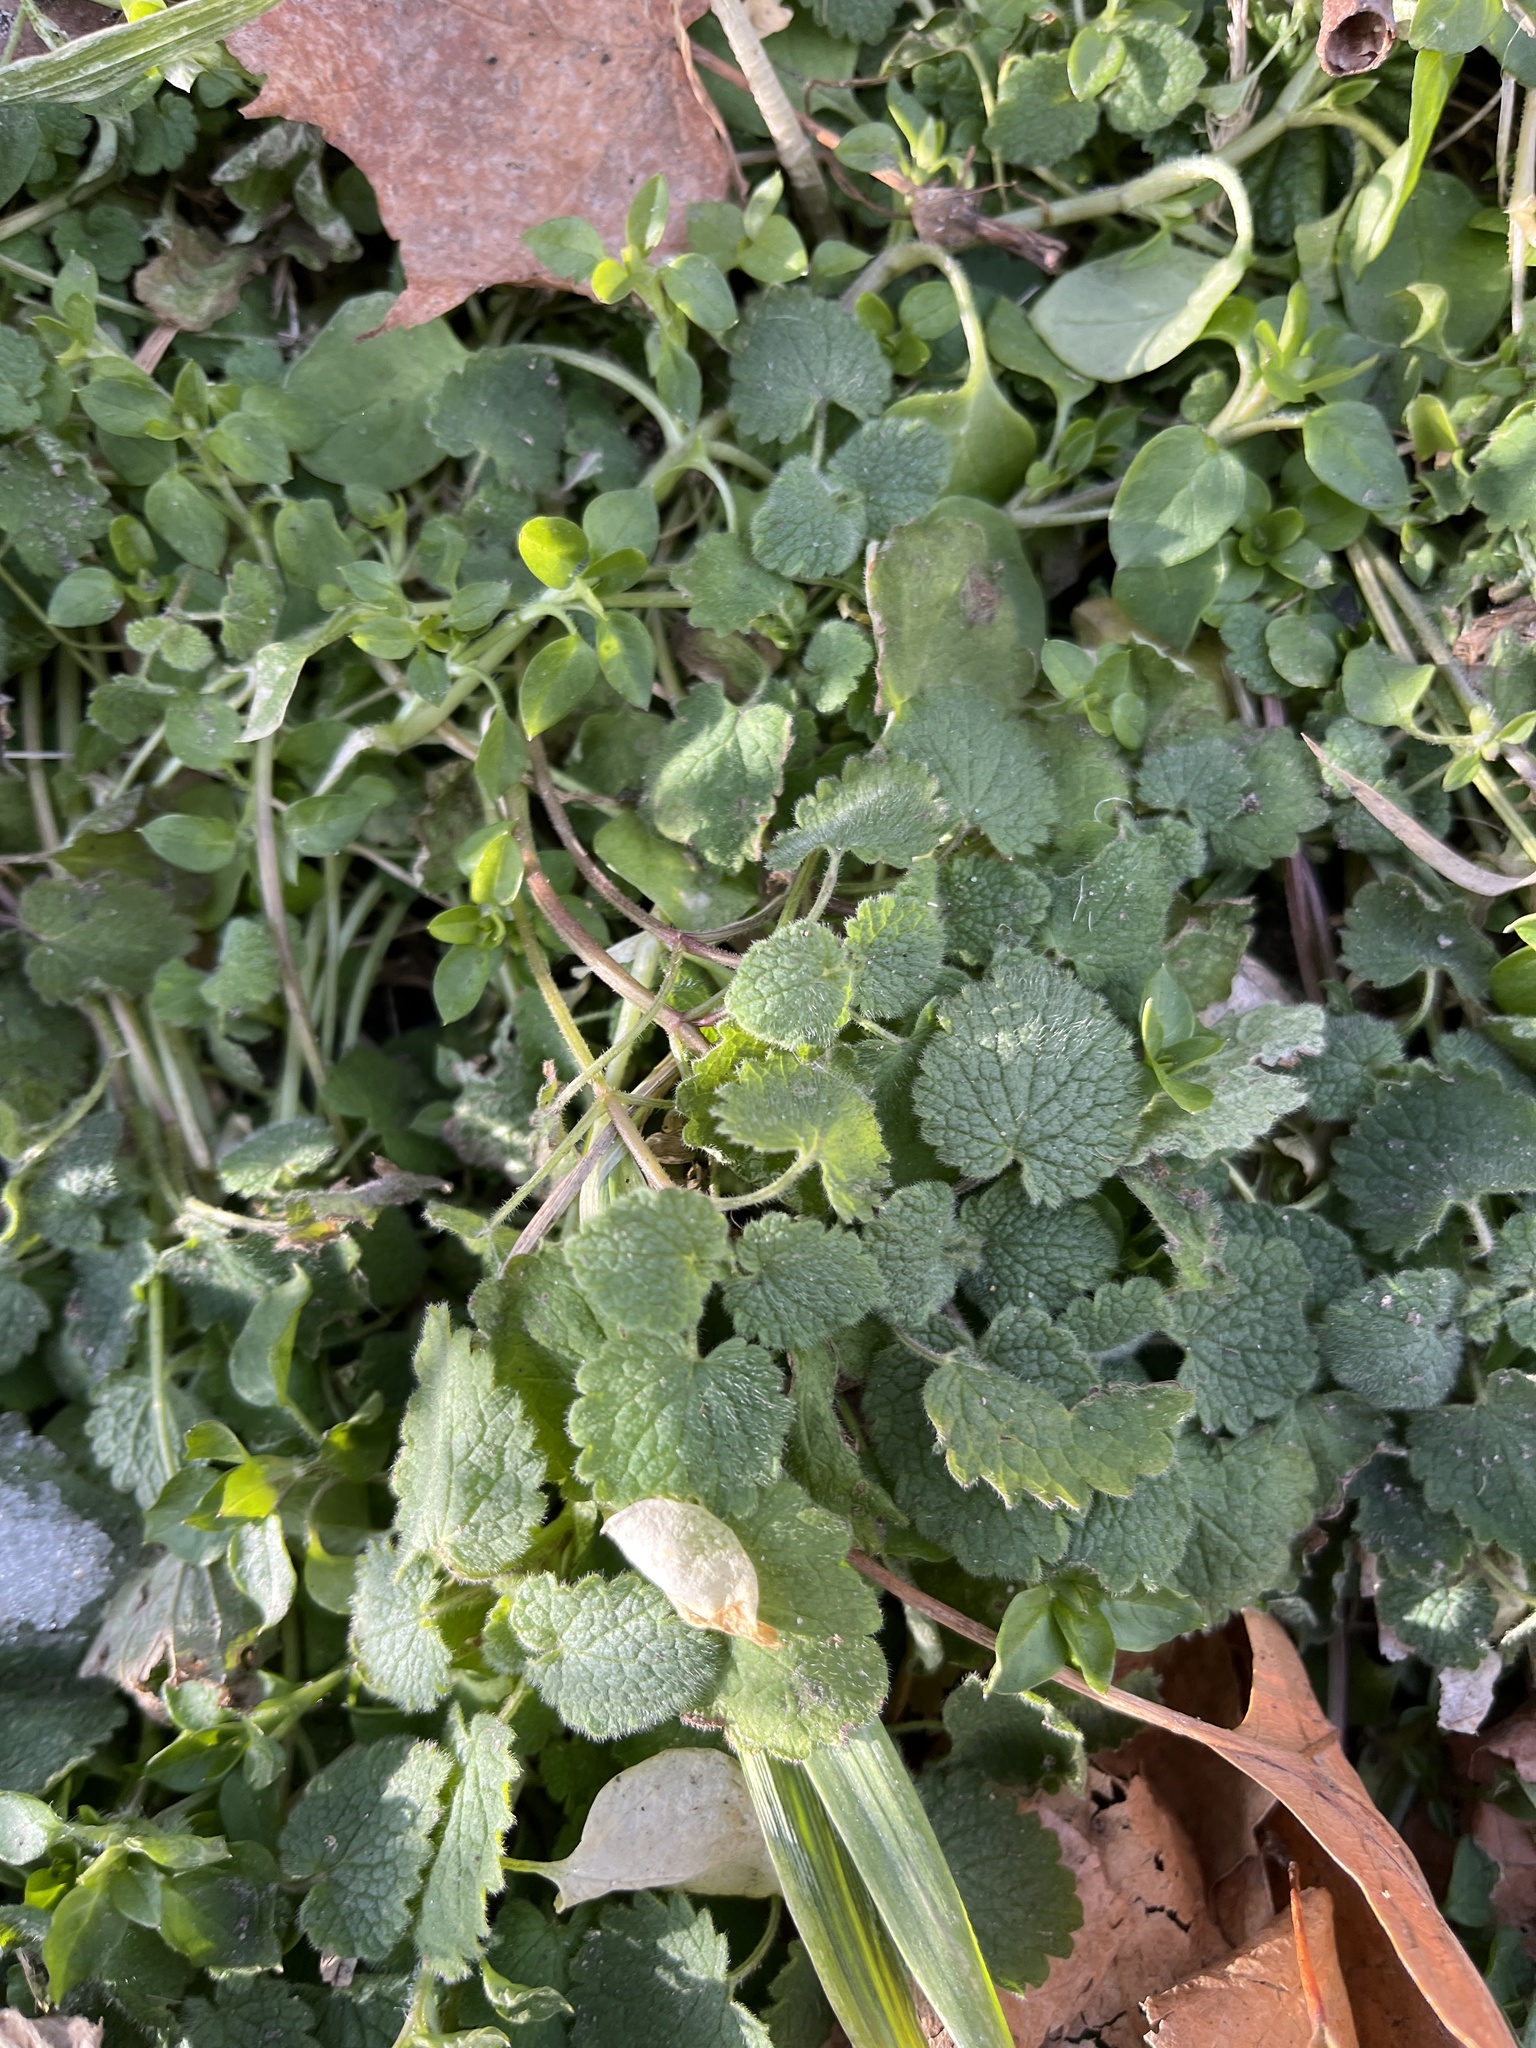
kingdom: Plantae
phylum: Tracheophyta
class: Magnoliopsida
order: Lamiales
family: Lamiaceae
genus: Lamium
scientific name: Lamium purpureum
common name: Red dead-nettle
